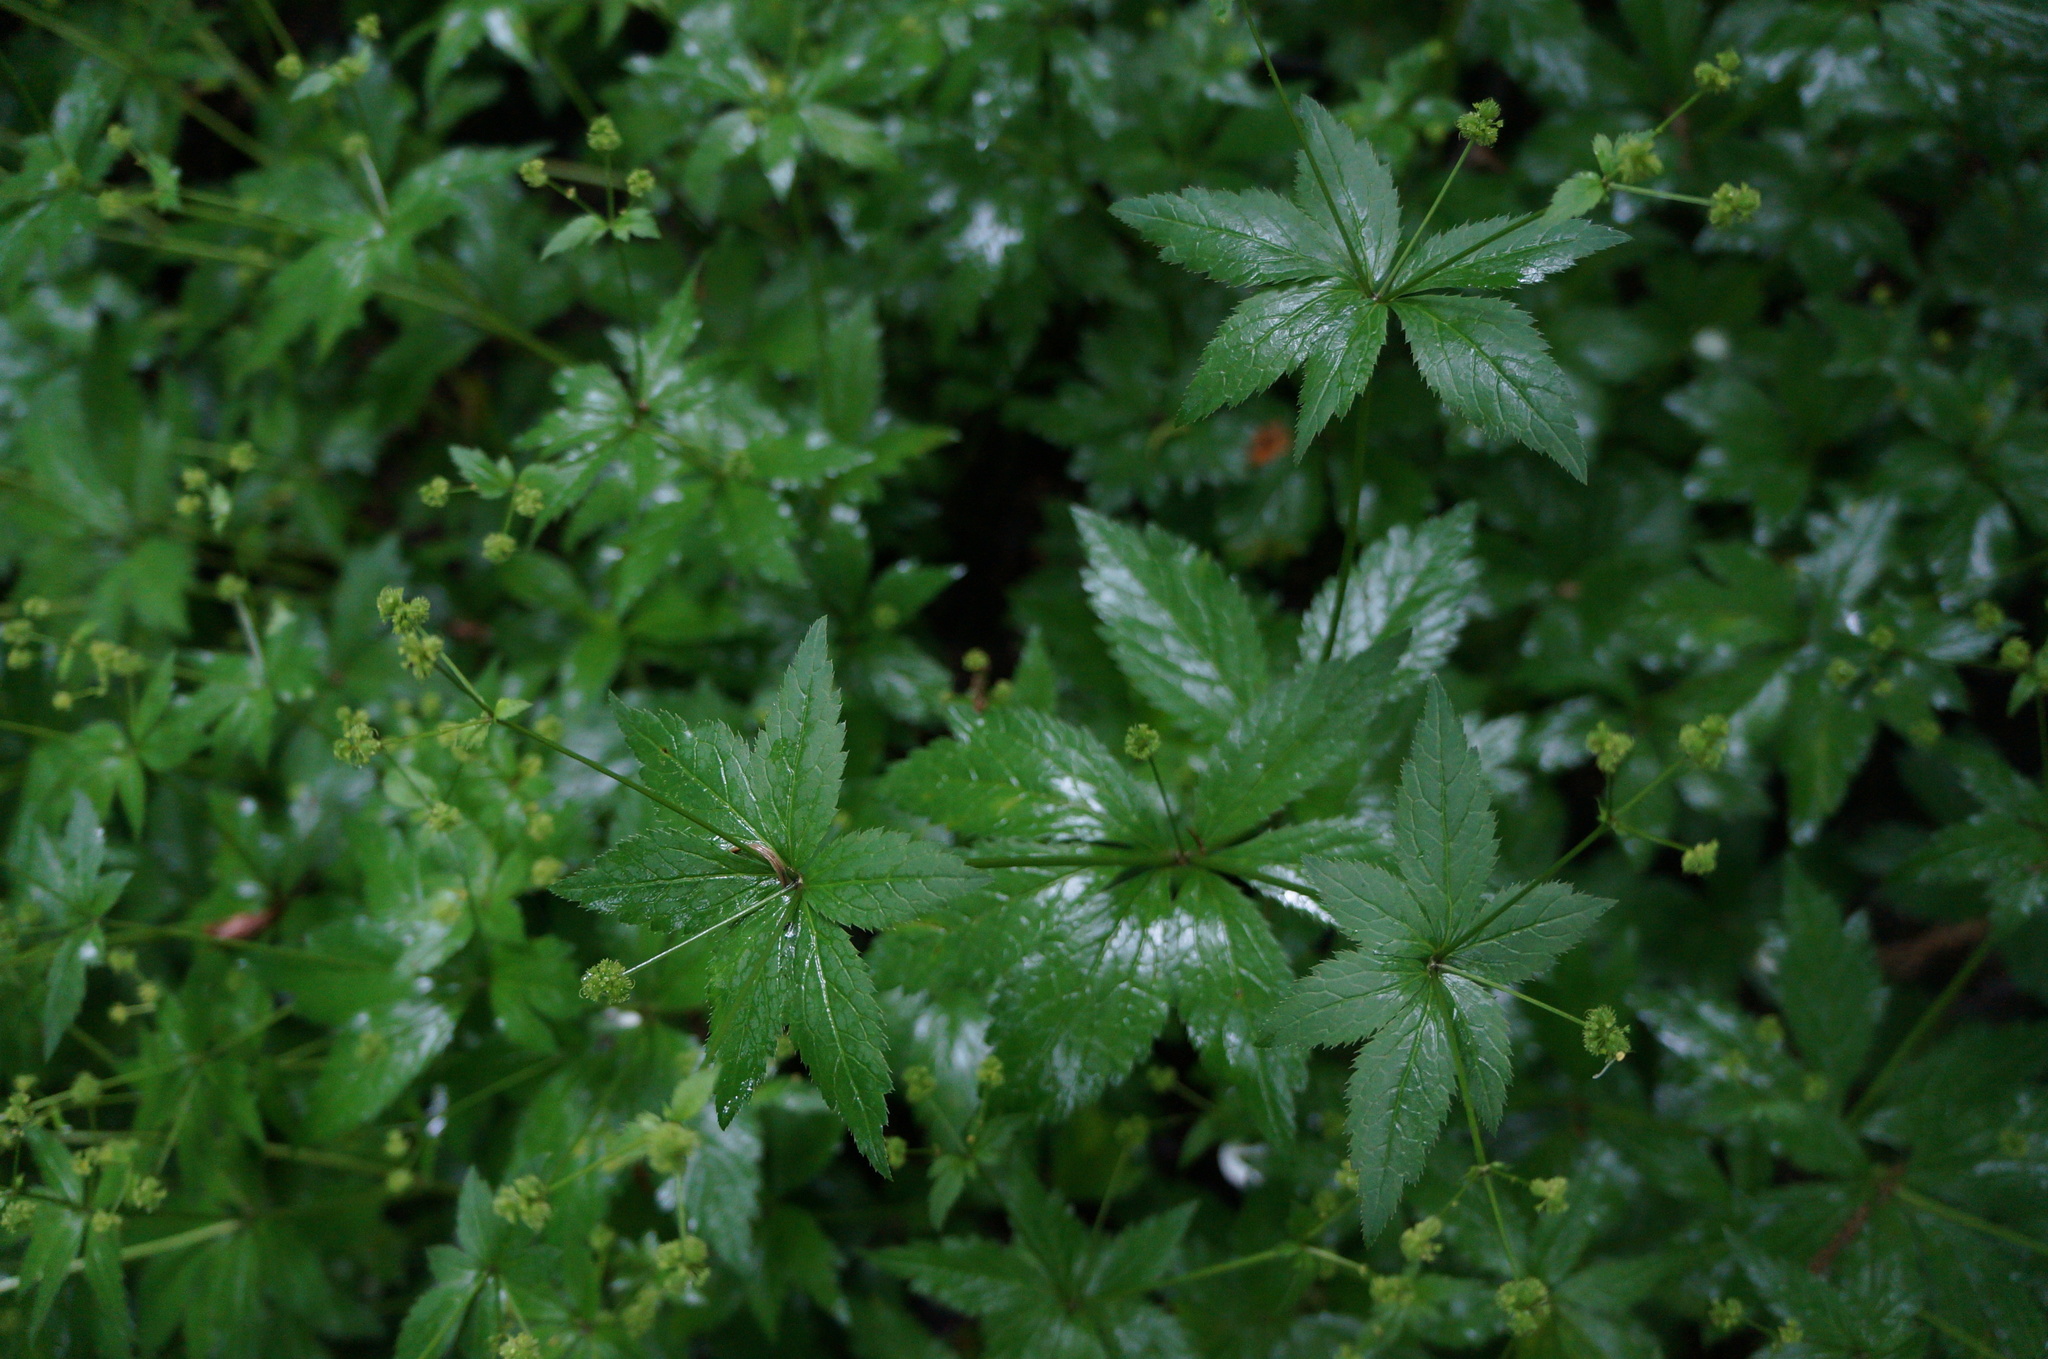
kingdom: Plantae
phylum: Tracheophyta
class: Magnoliopsida
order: Apiales
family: Apiaceae
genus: Sanicula
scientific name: Sanicula odorata
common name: Cluster sanicle
